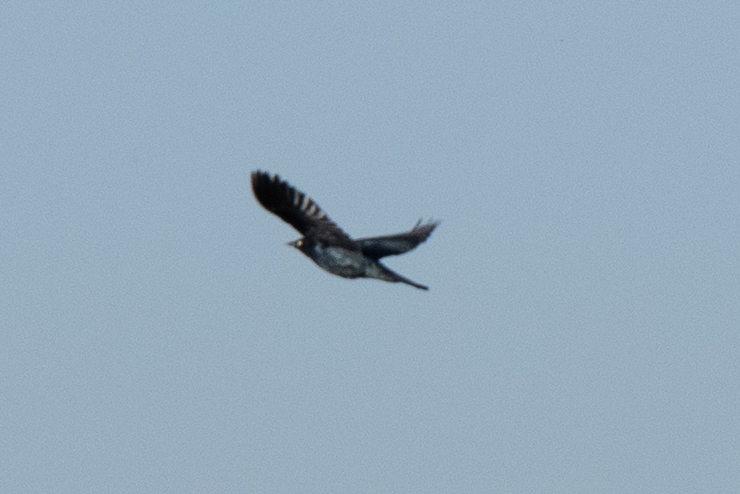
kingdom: Animalia
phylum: Chordata
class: Aves
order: Passeriformes
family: Icteridae
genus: Euphagus
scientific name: Euphagus cyanocephalus
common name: Brewer's blackbird
